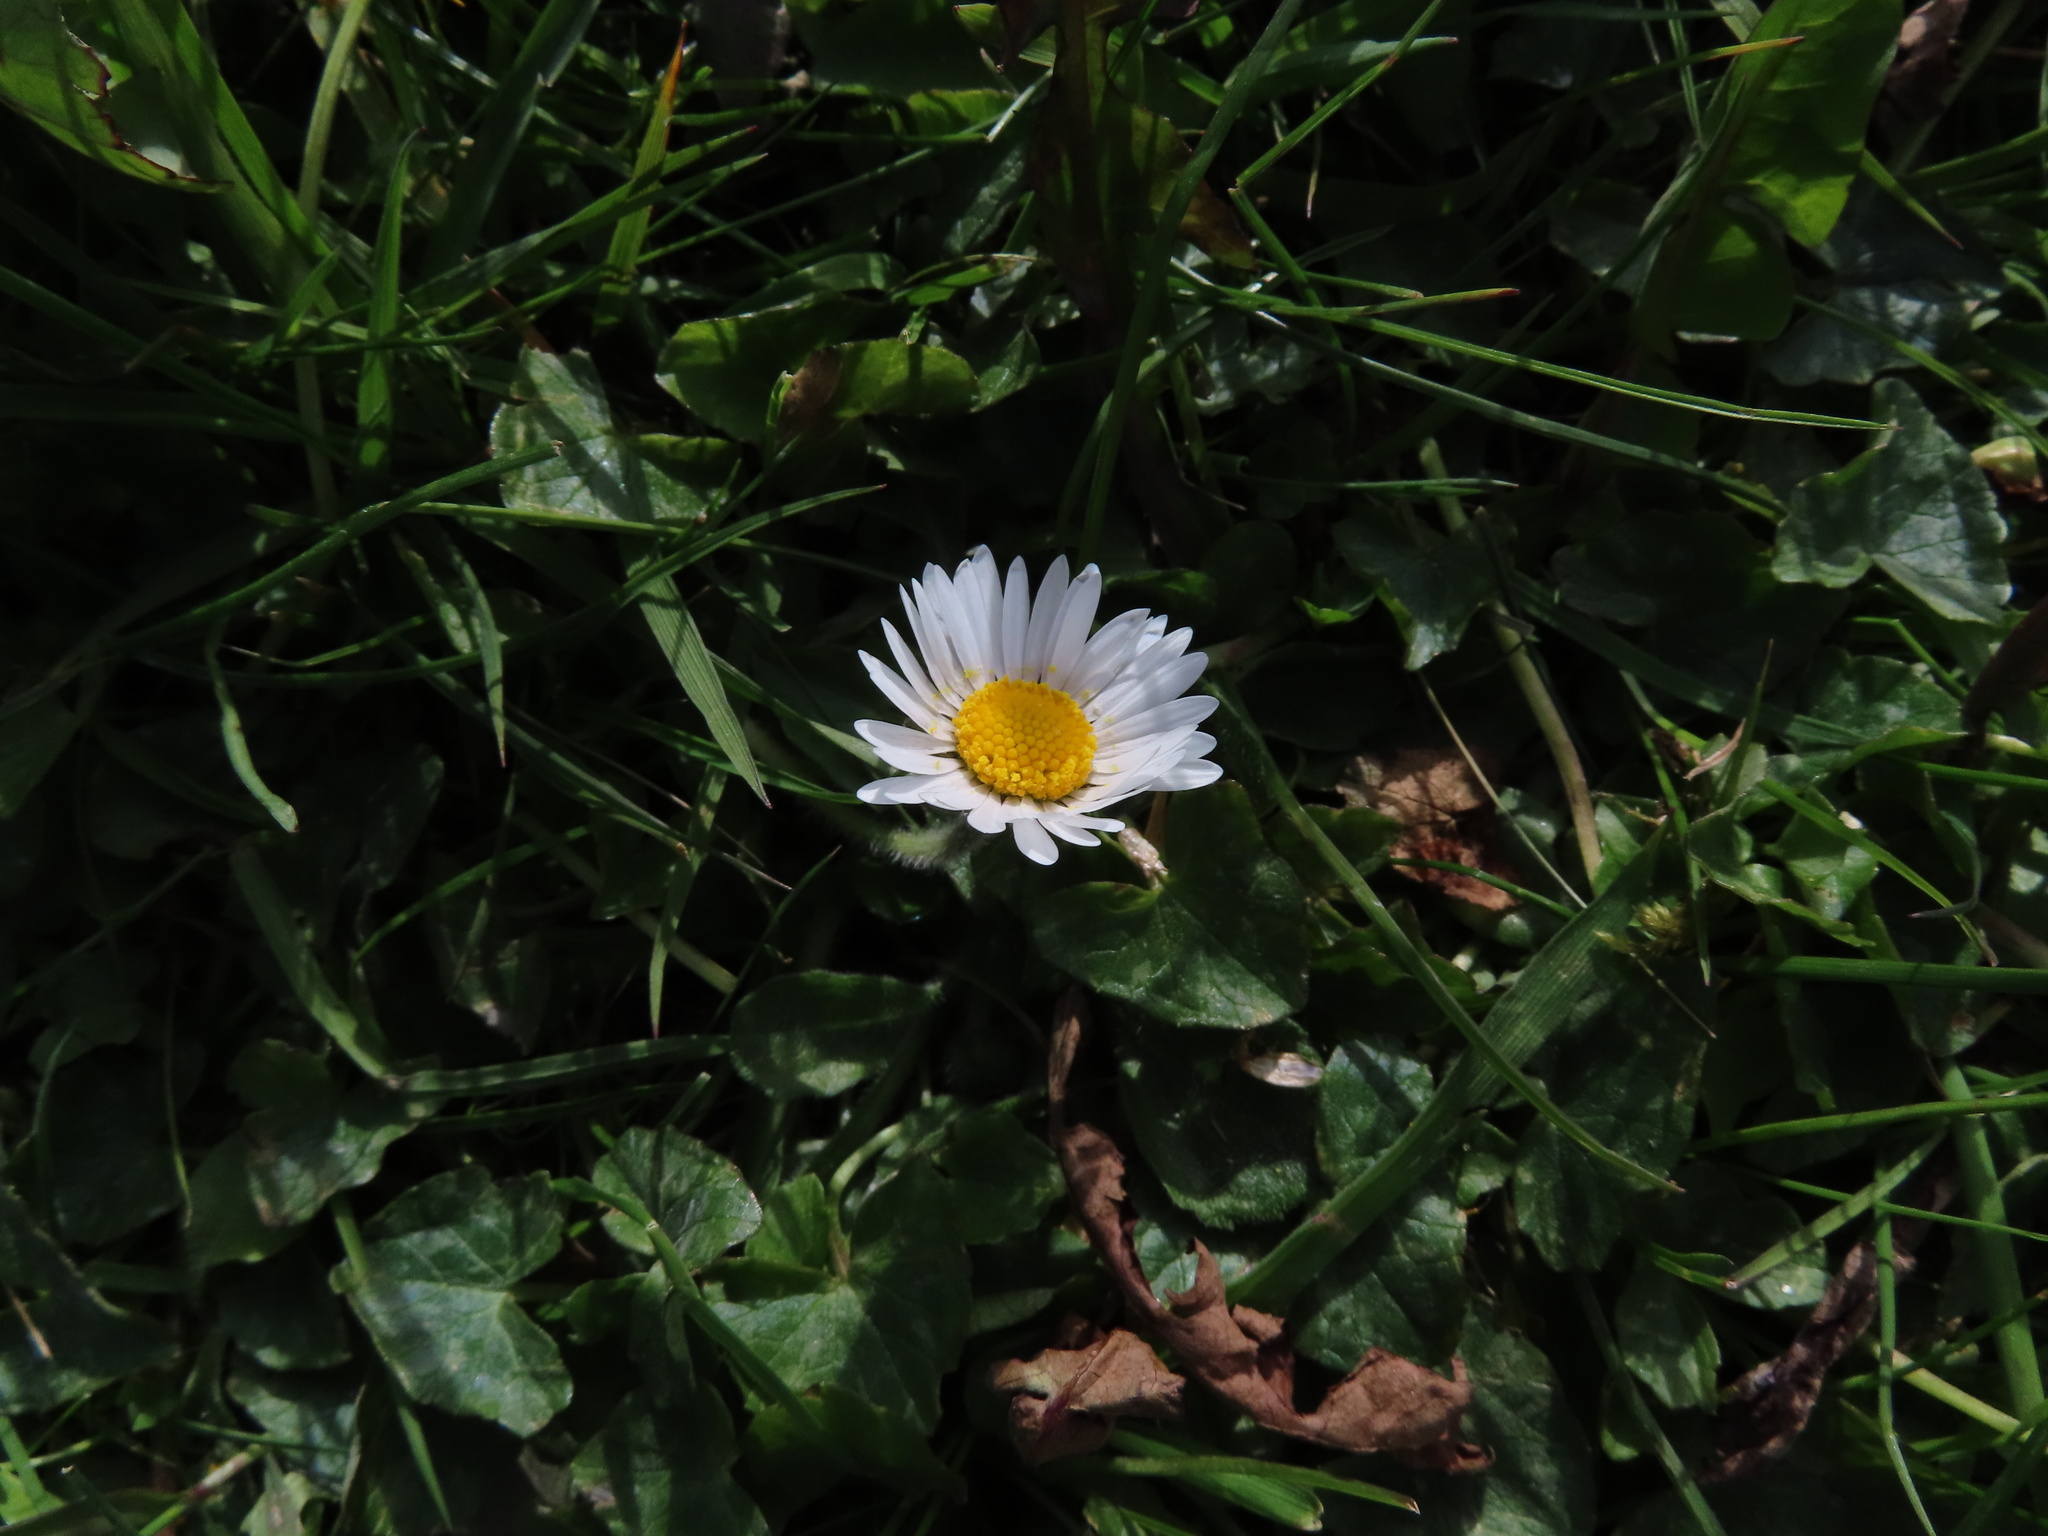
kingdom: Plantae
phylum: Tracheophyta
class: Magnoliopsida
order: Asterales
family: Asteraceae
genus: Bellis
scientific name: Bellis perennis
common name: Lawndaisy
